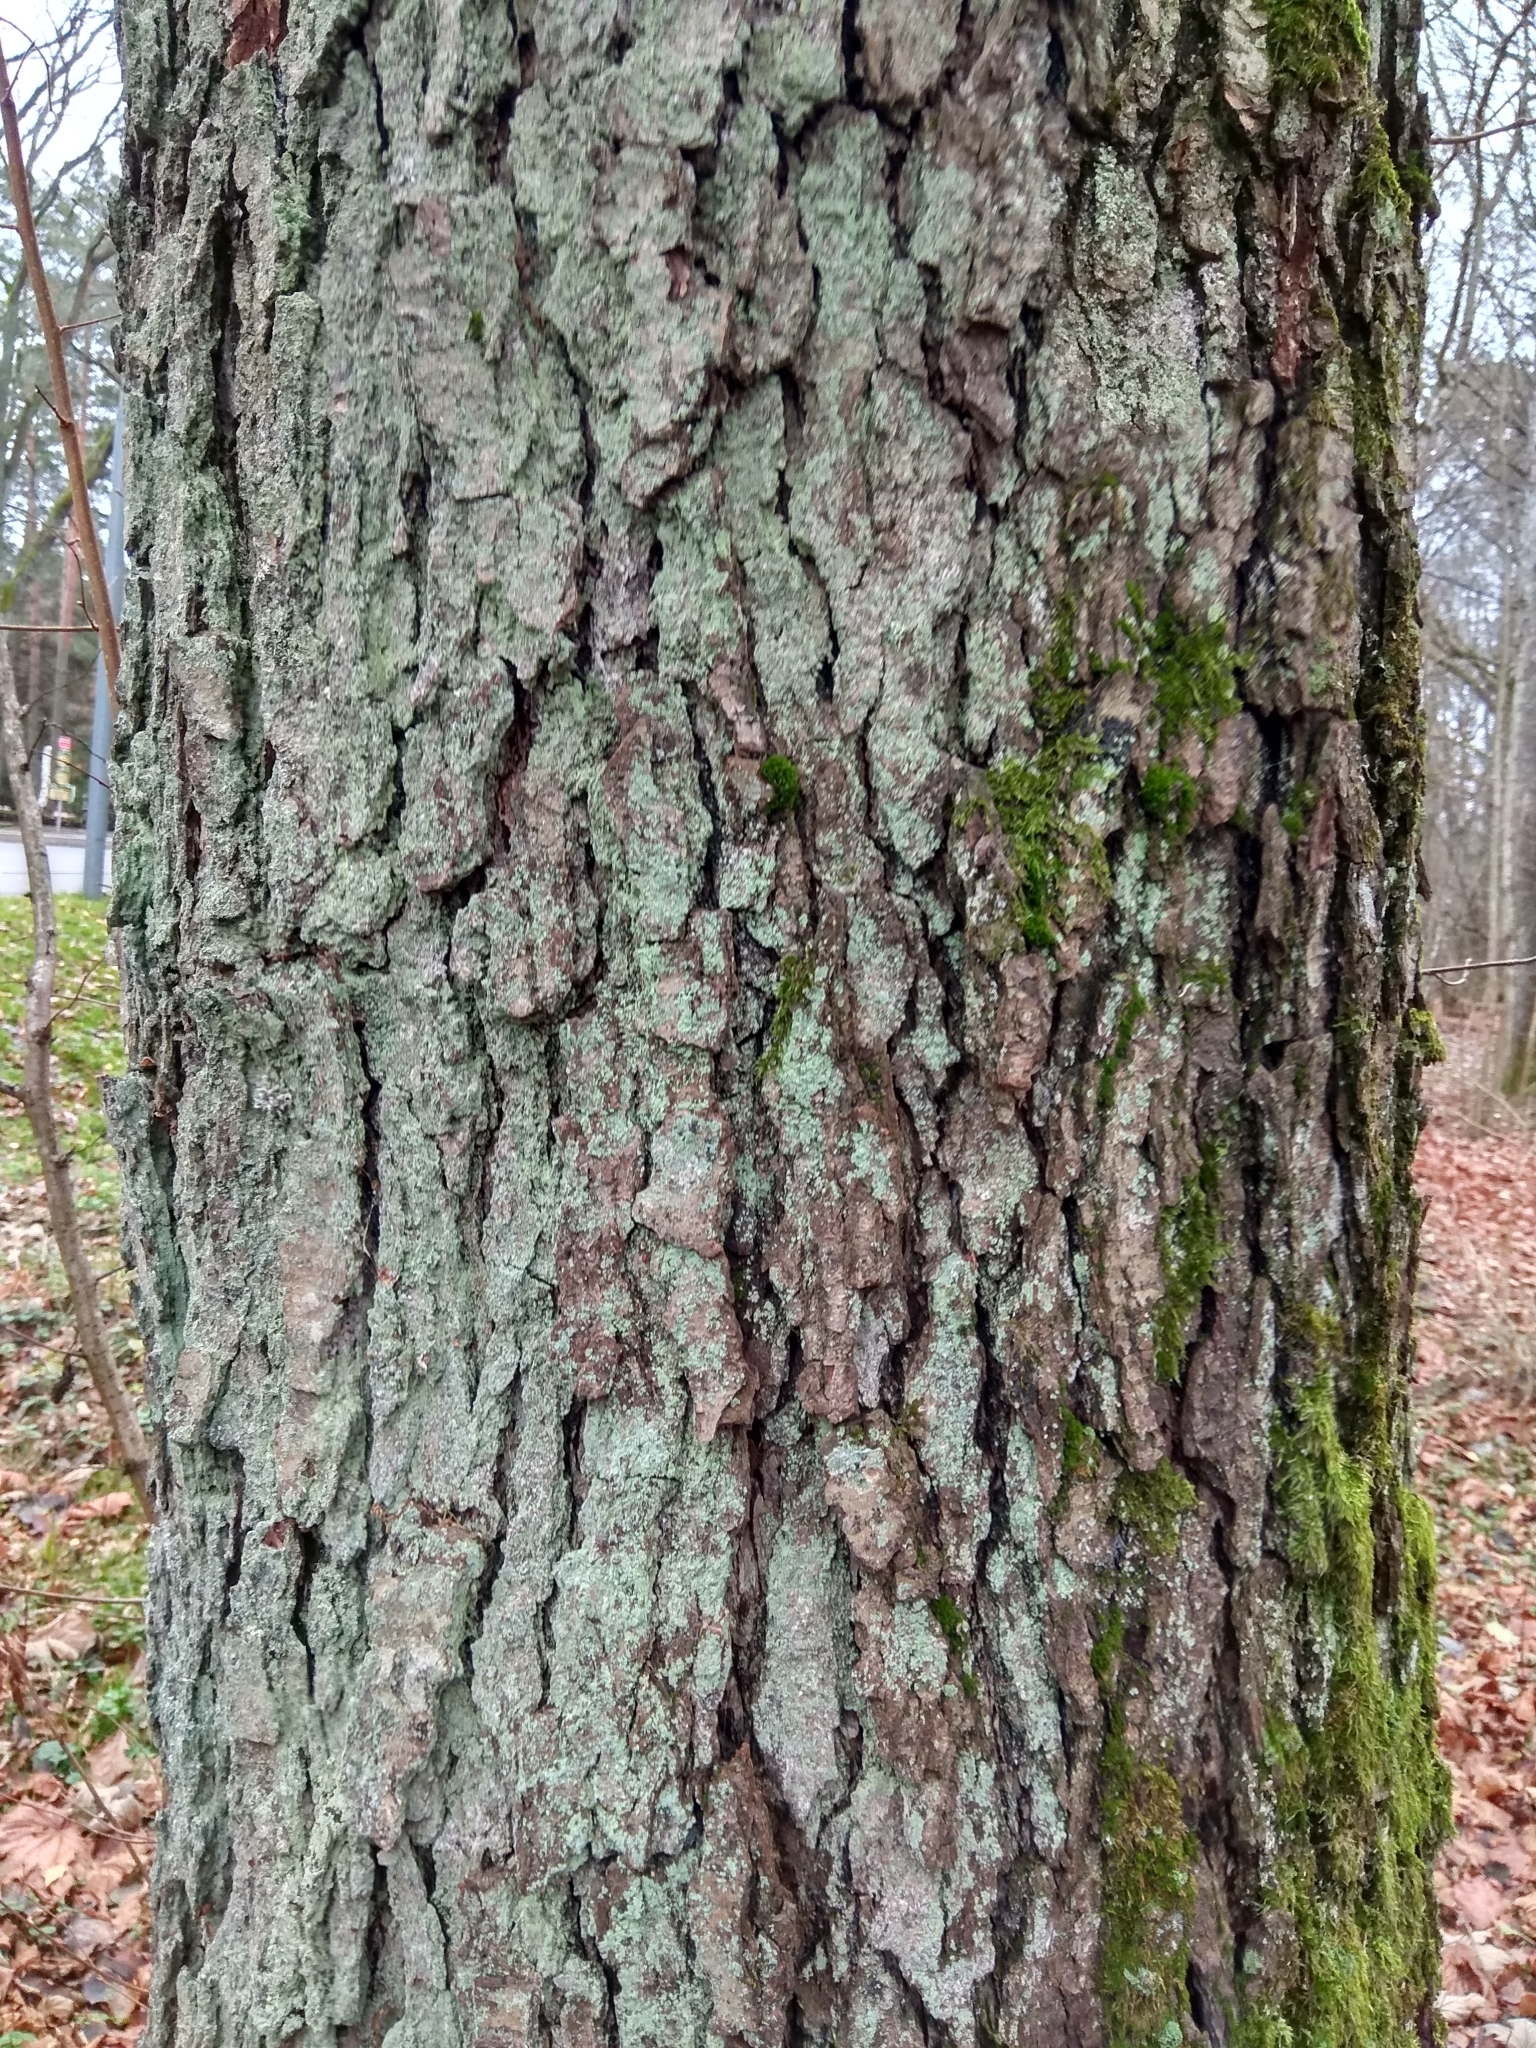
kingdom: Plantae
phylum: Tracheophyta
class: Magnoliopsida
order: Fagales
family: Betulaceae
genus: Alnus
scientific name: Alnus glutinosa
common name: Black alder
